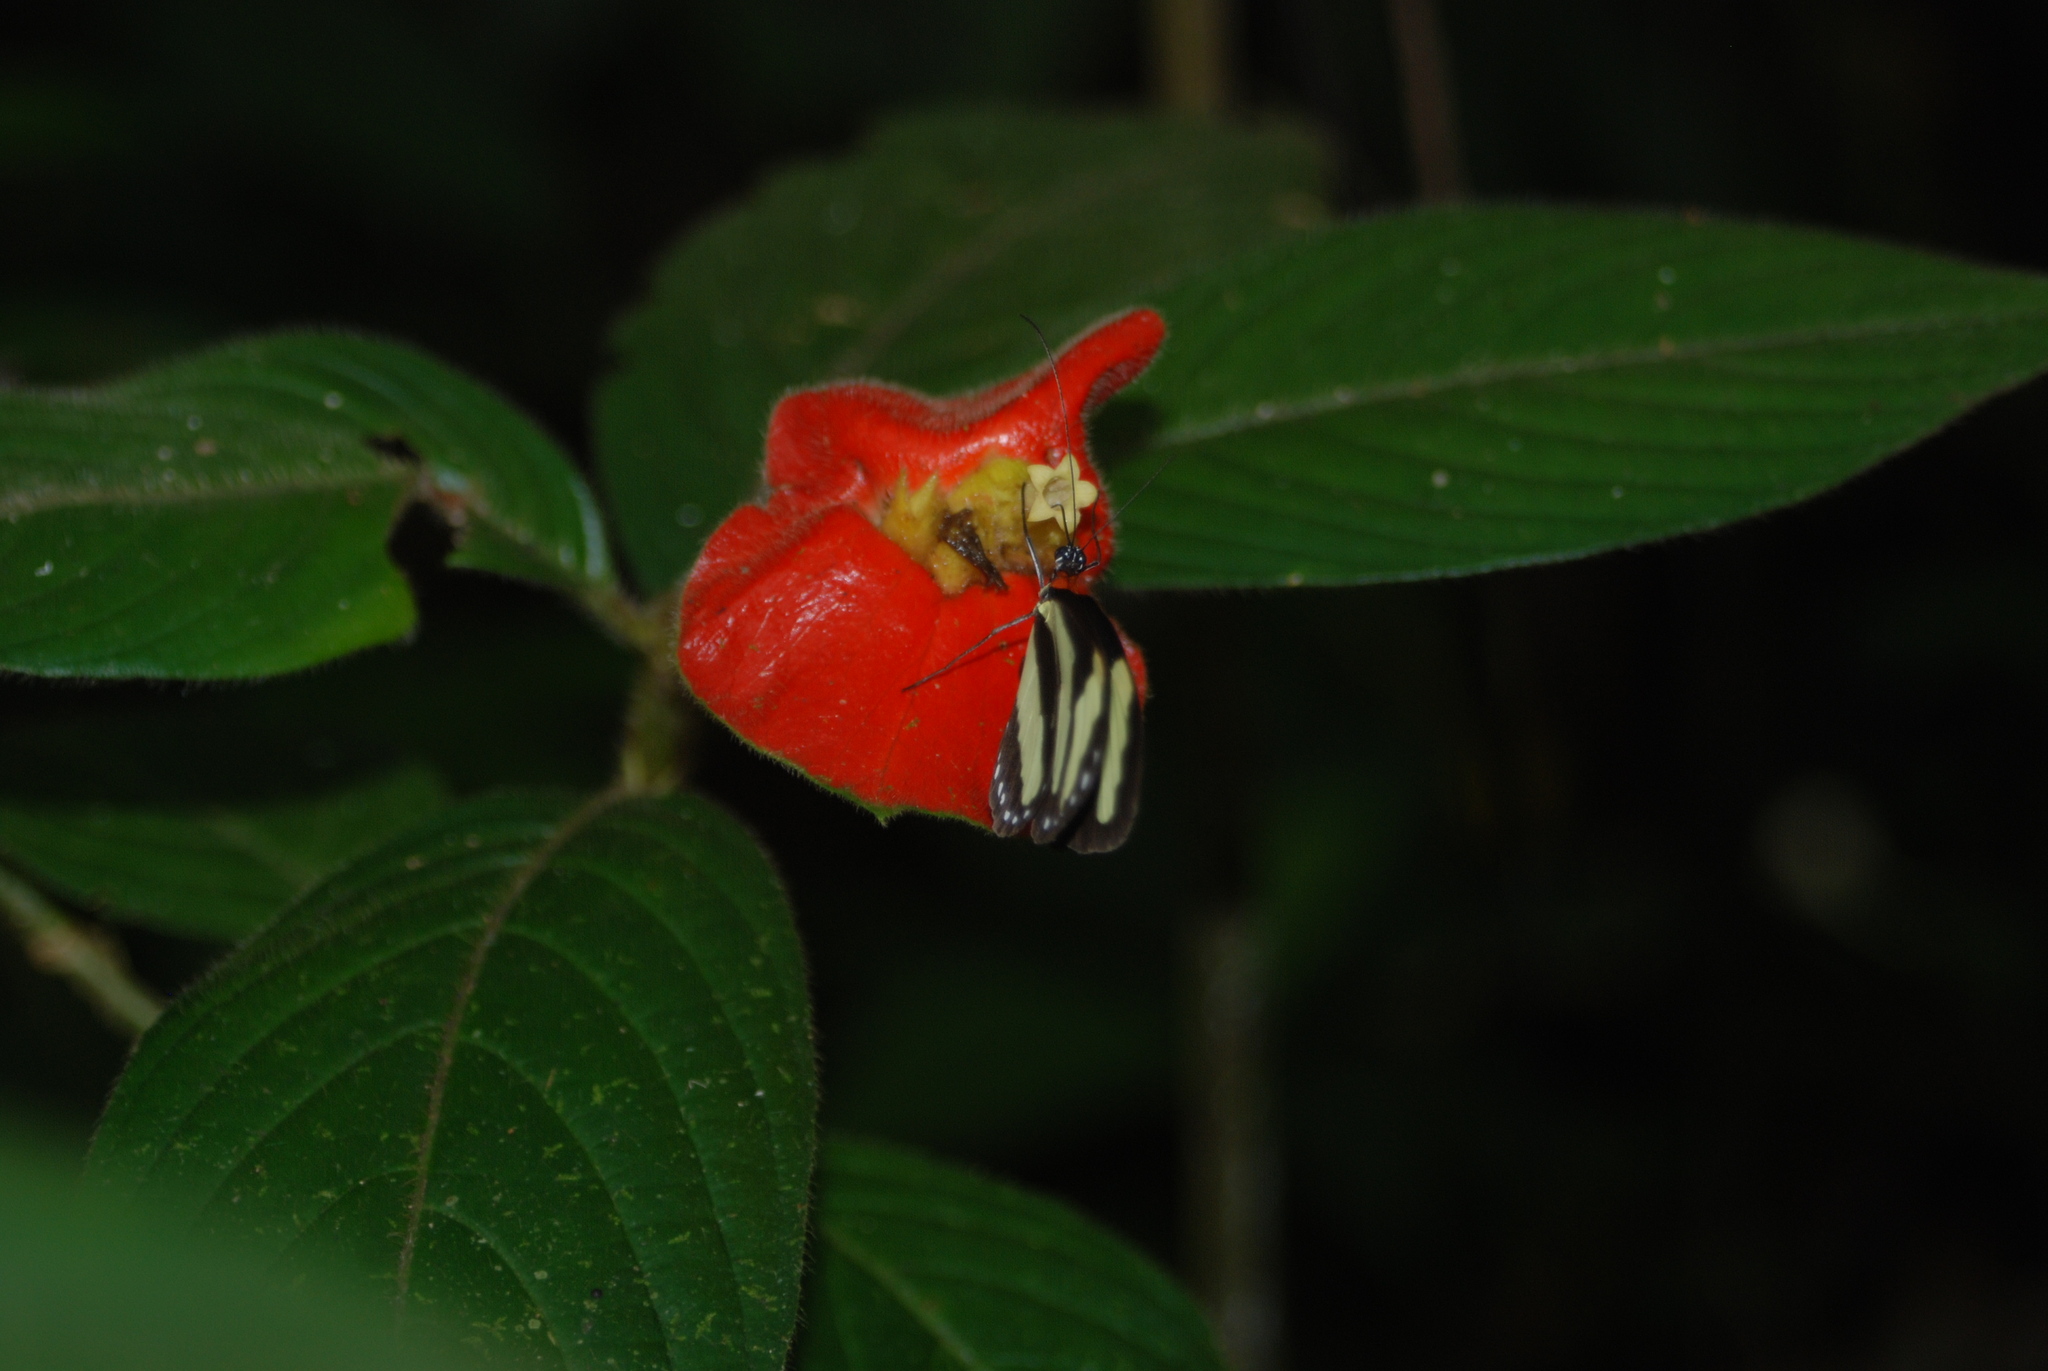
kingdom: Plantae
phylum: Tracheophyta
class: Magnoliopsida
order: Gentianales
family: Rubiaceae
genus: Palicourea
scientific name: Palicourea tomentosa
